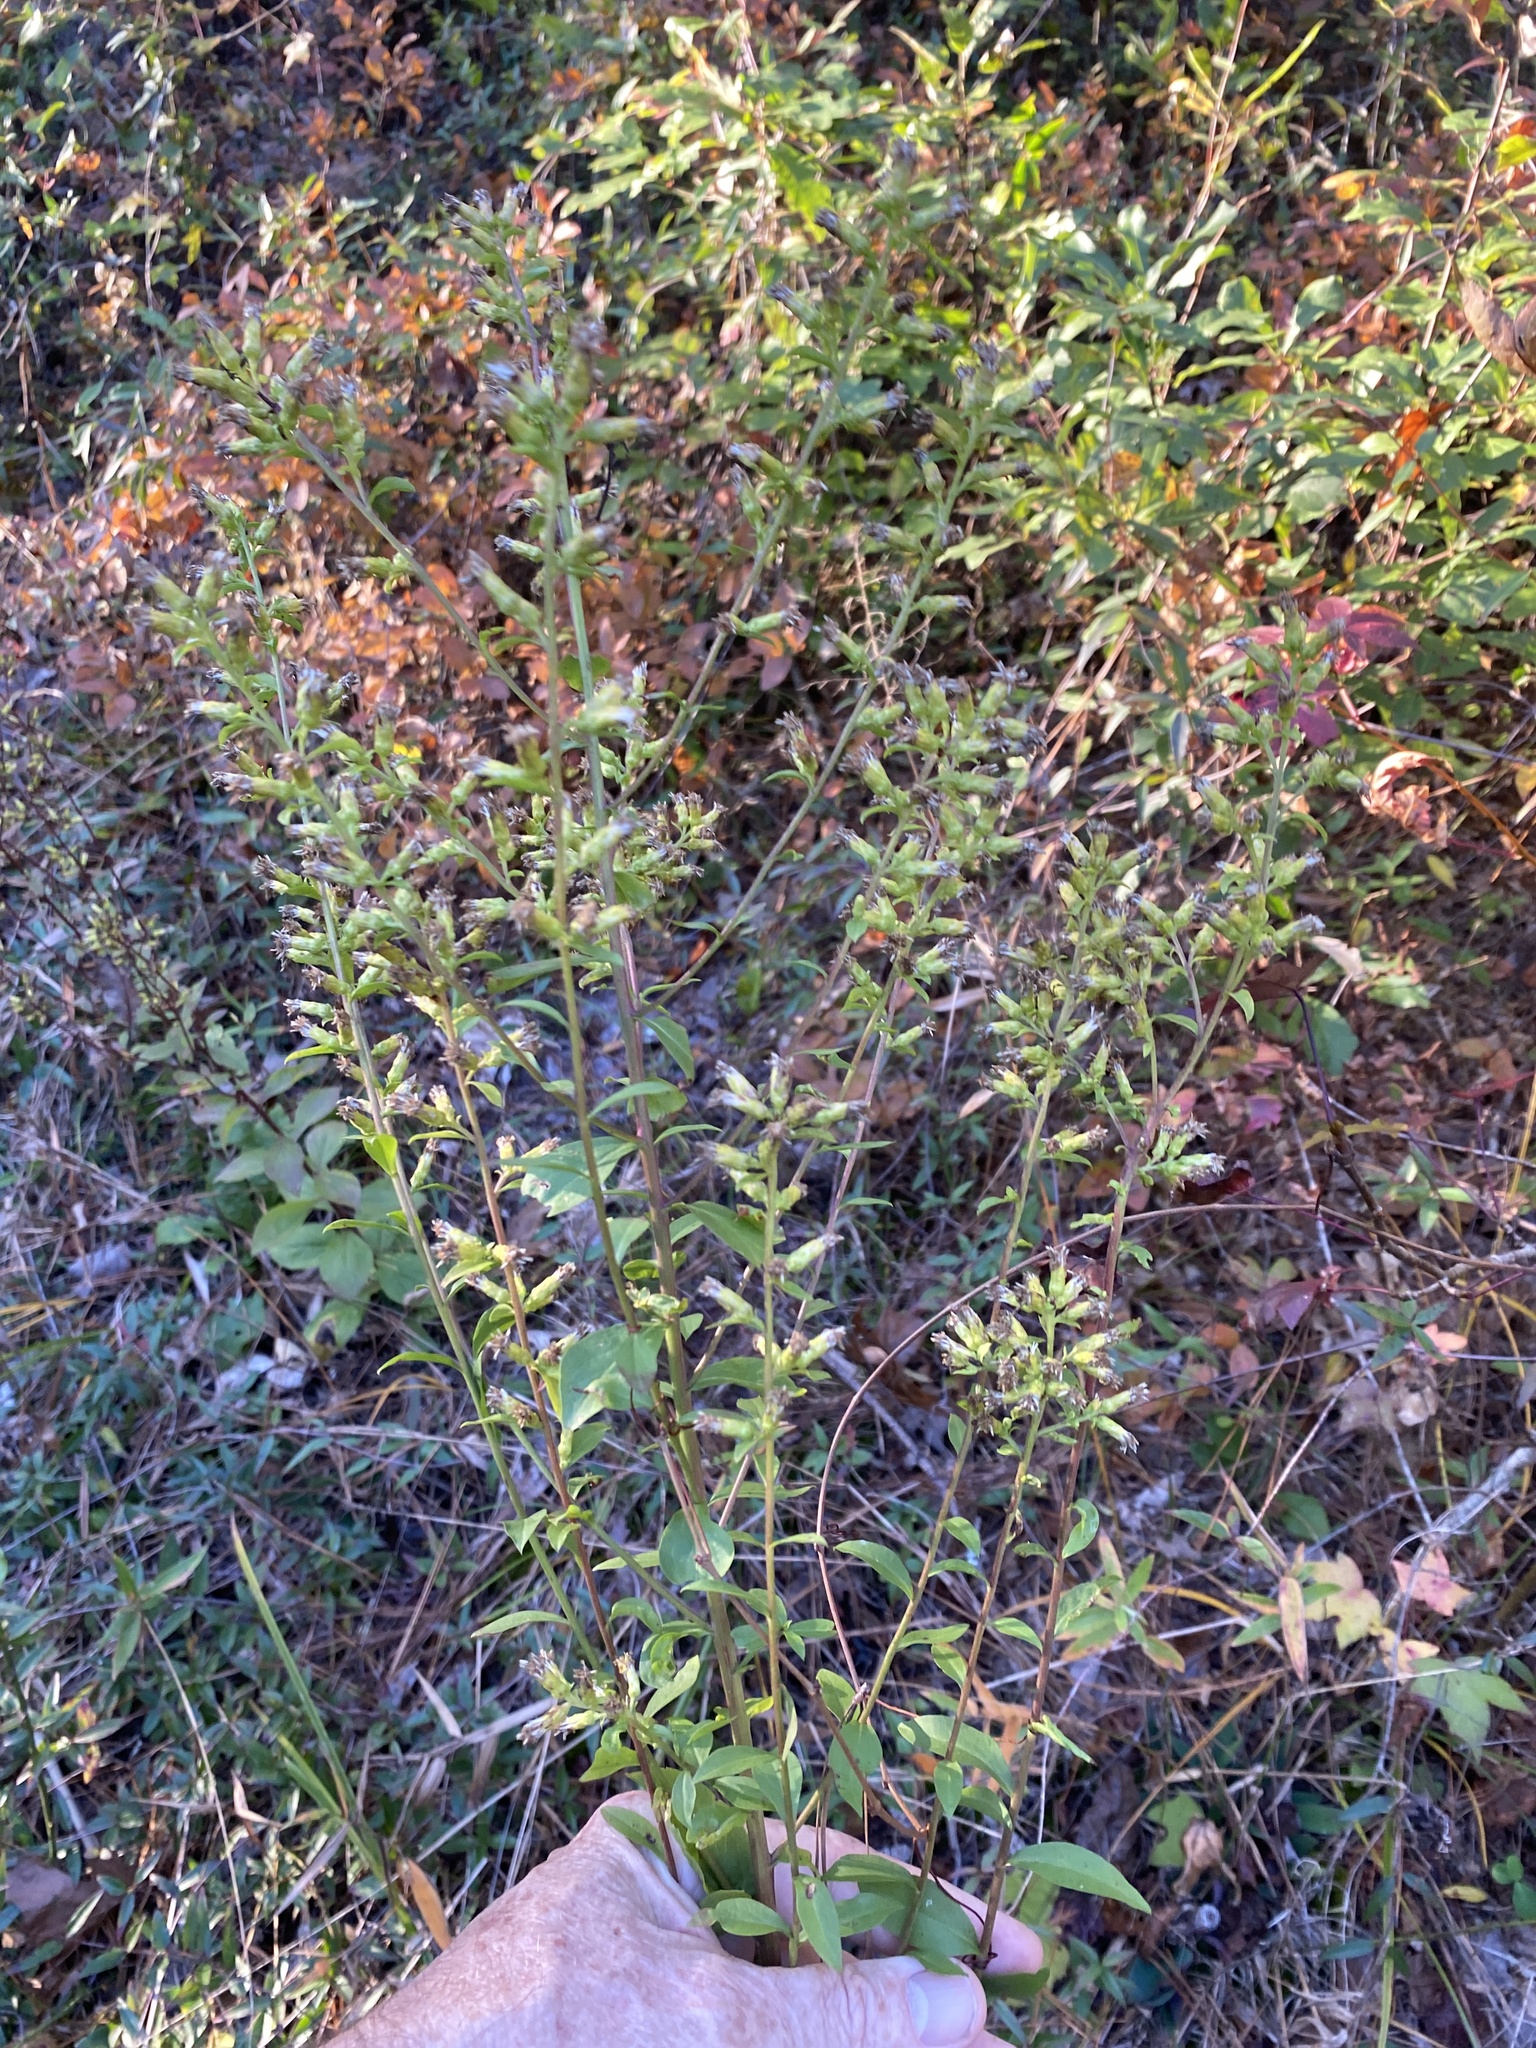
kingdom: Plantae
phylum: Tracheophyta
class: Magnoliopsida
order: Asterales
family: Asteraceae
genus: Solidago
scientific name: Solidago villosicarpa
